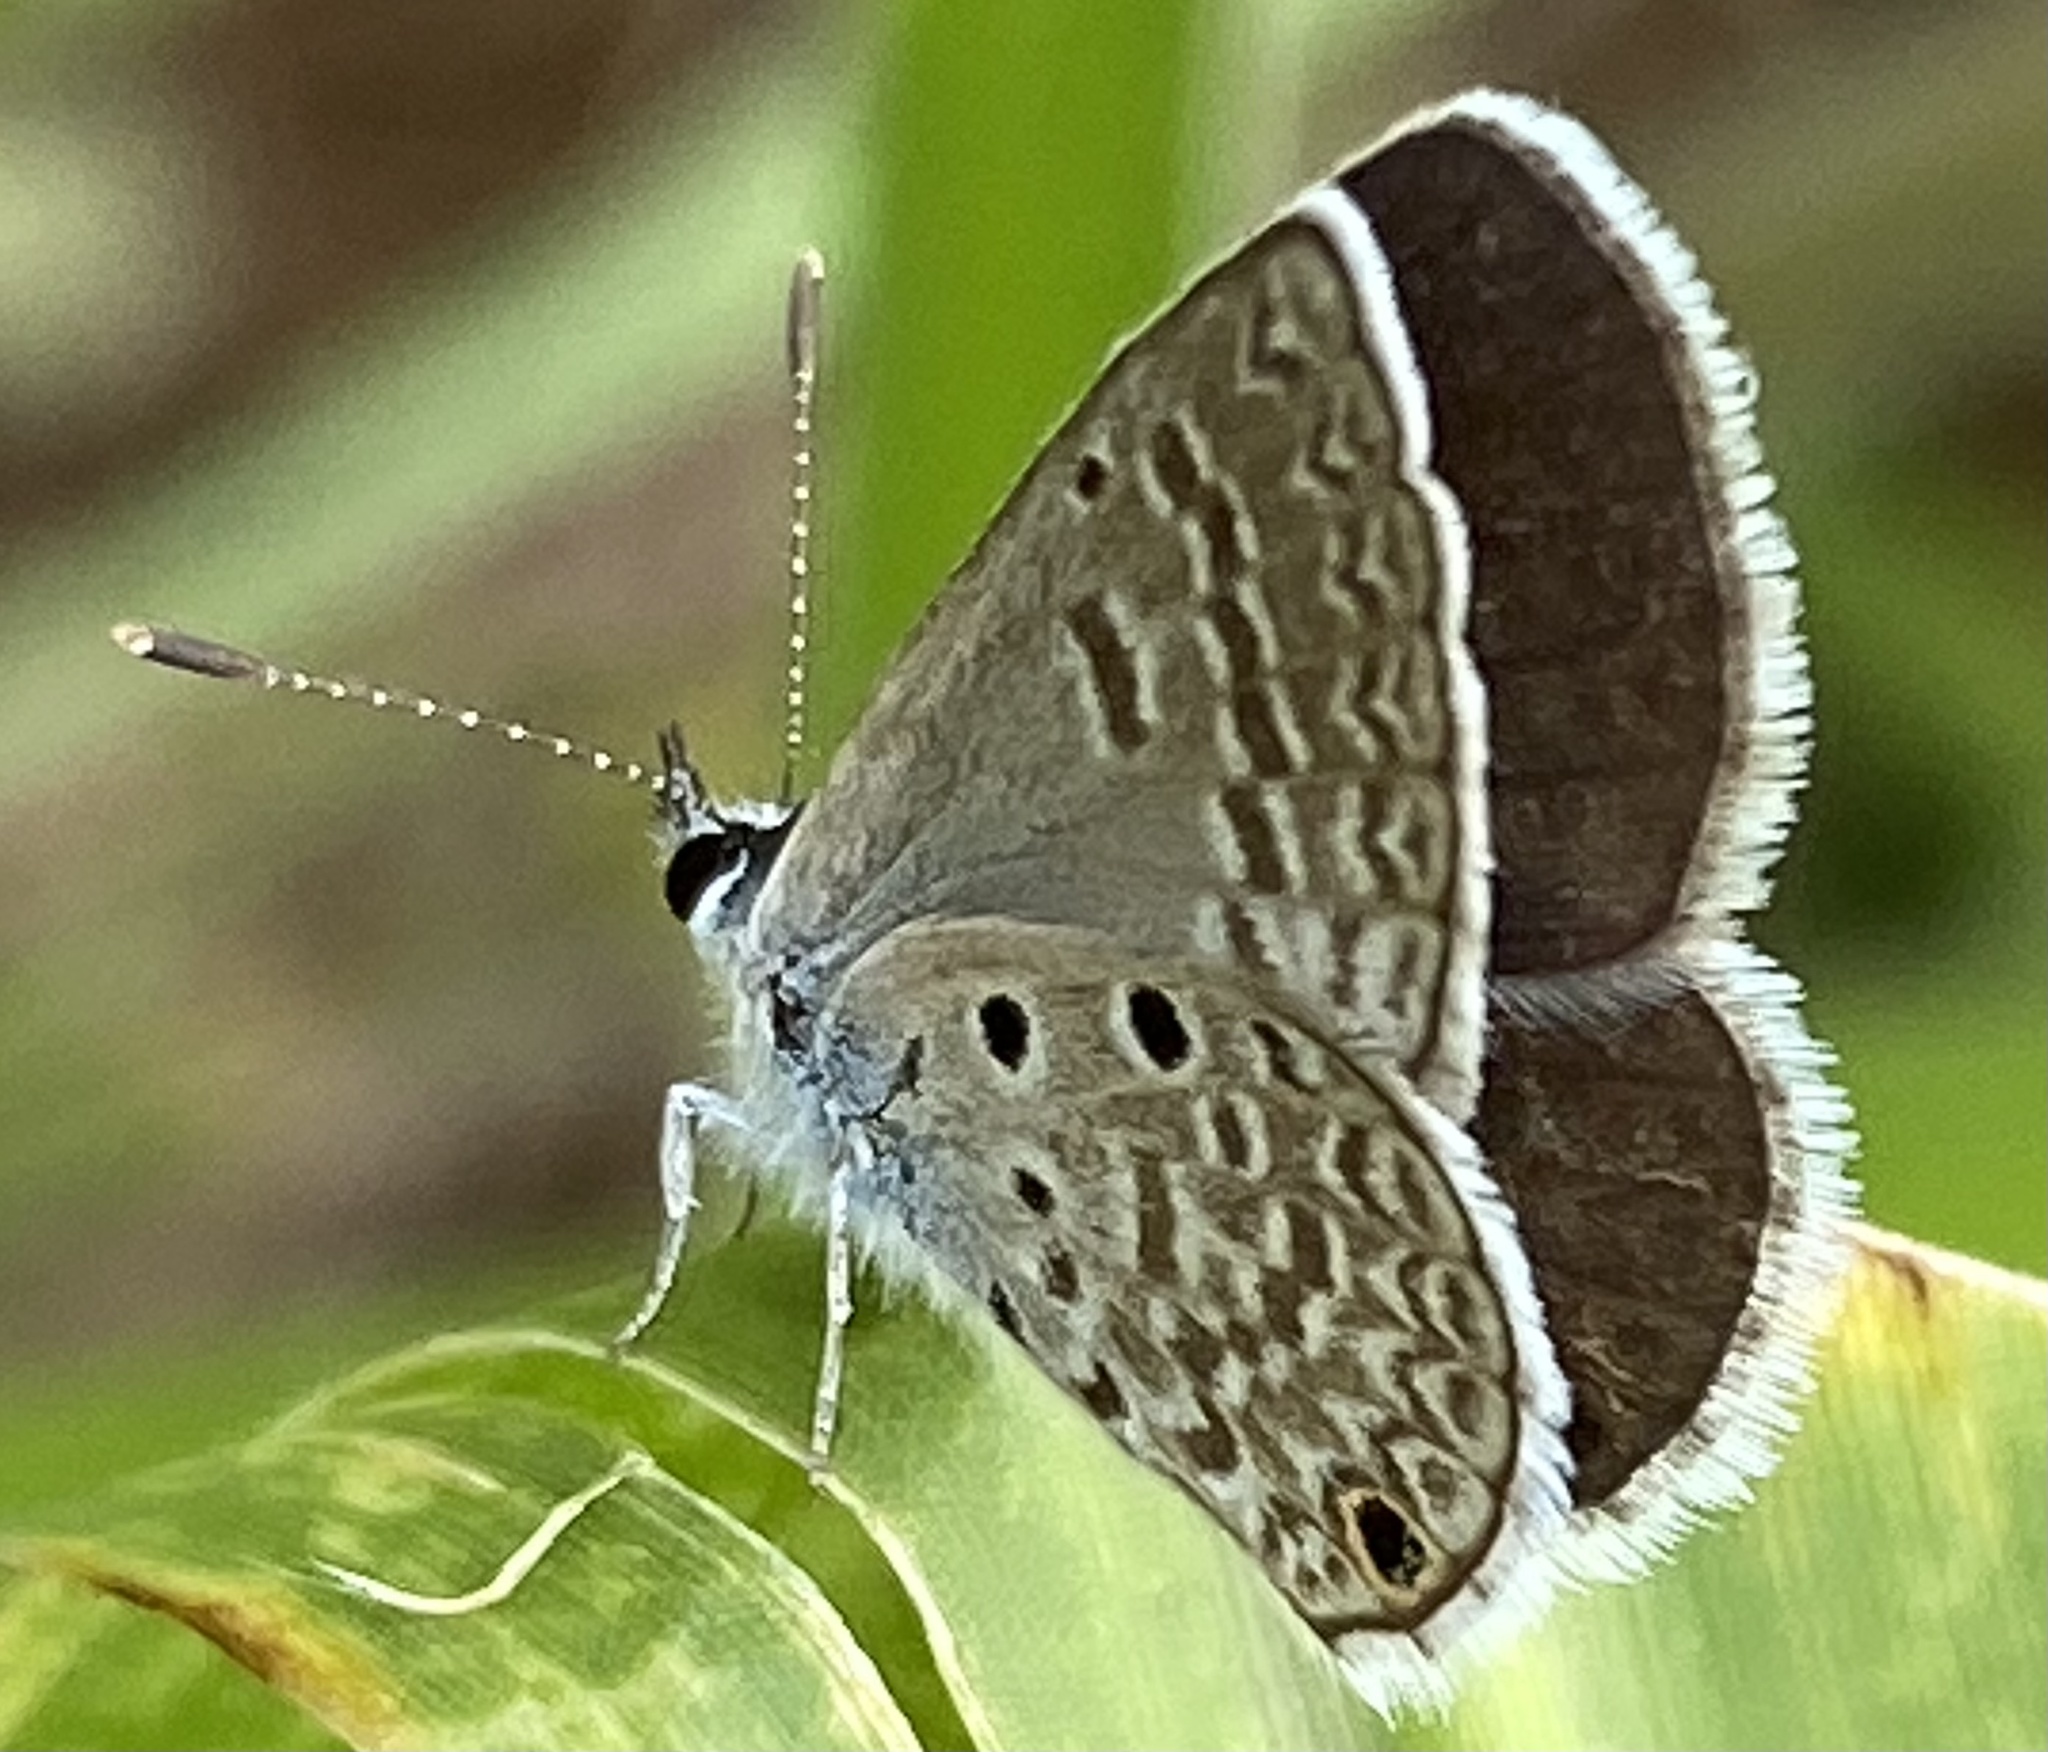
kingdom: Animalia
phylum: Arthropoda
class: Insecta
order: Lepidoptera
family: Lycaenidae
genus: Hemiargus
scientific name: Hemiargus hanno
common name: Common blue
